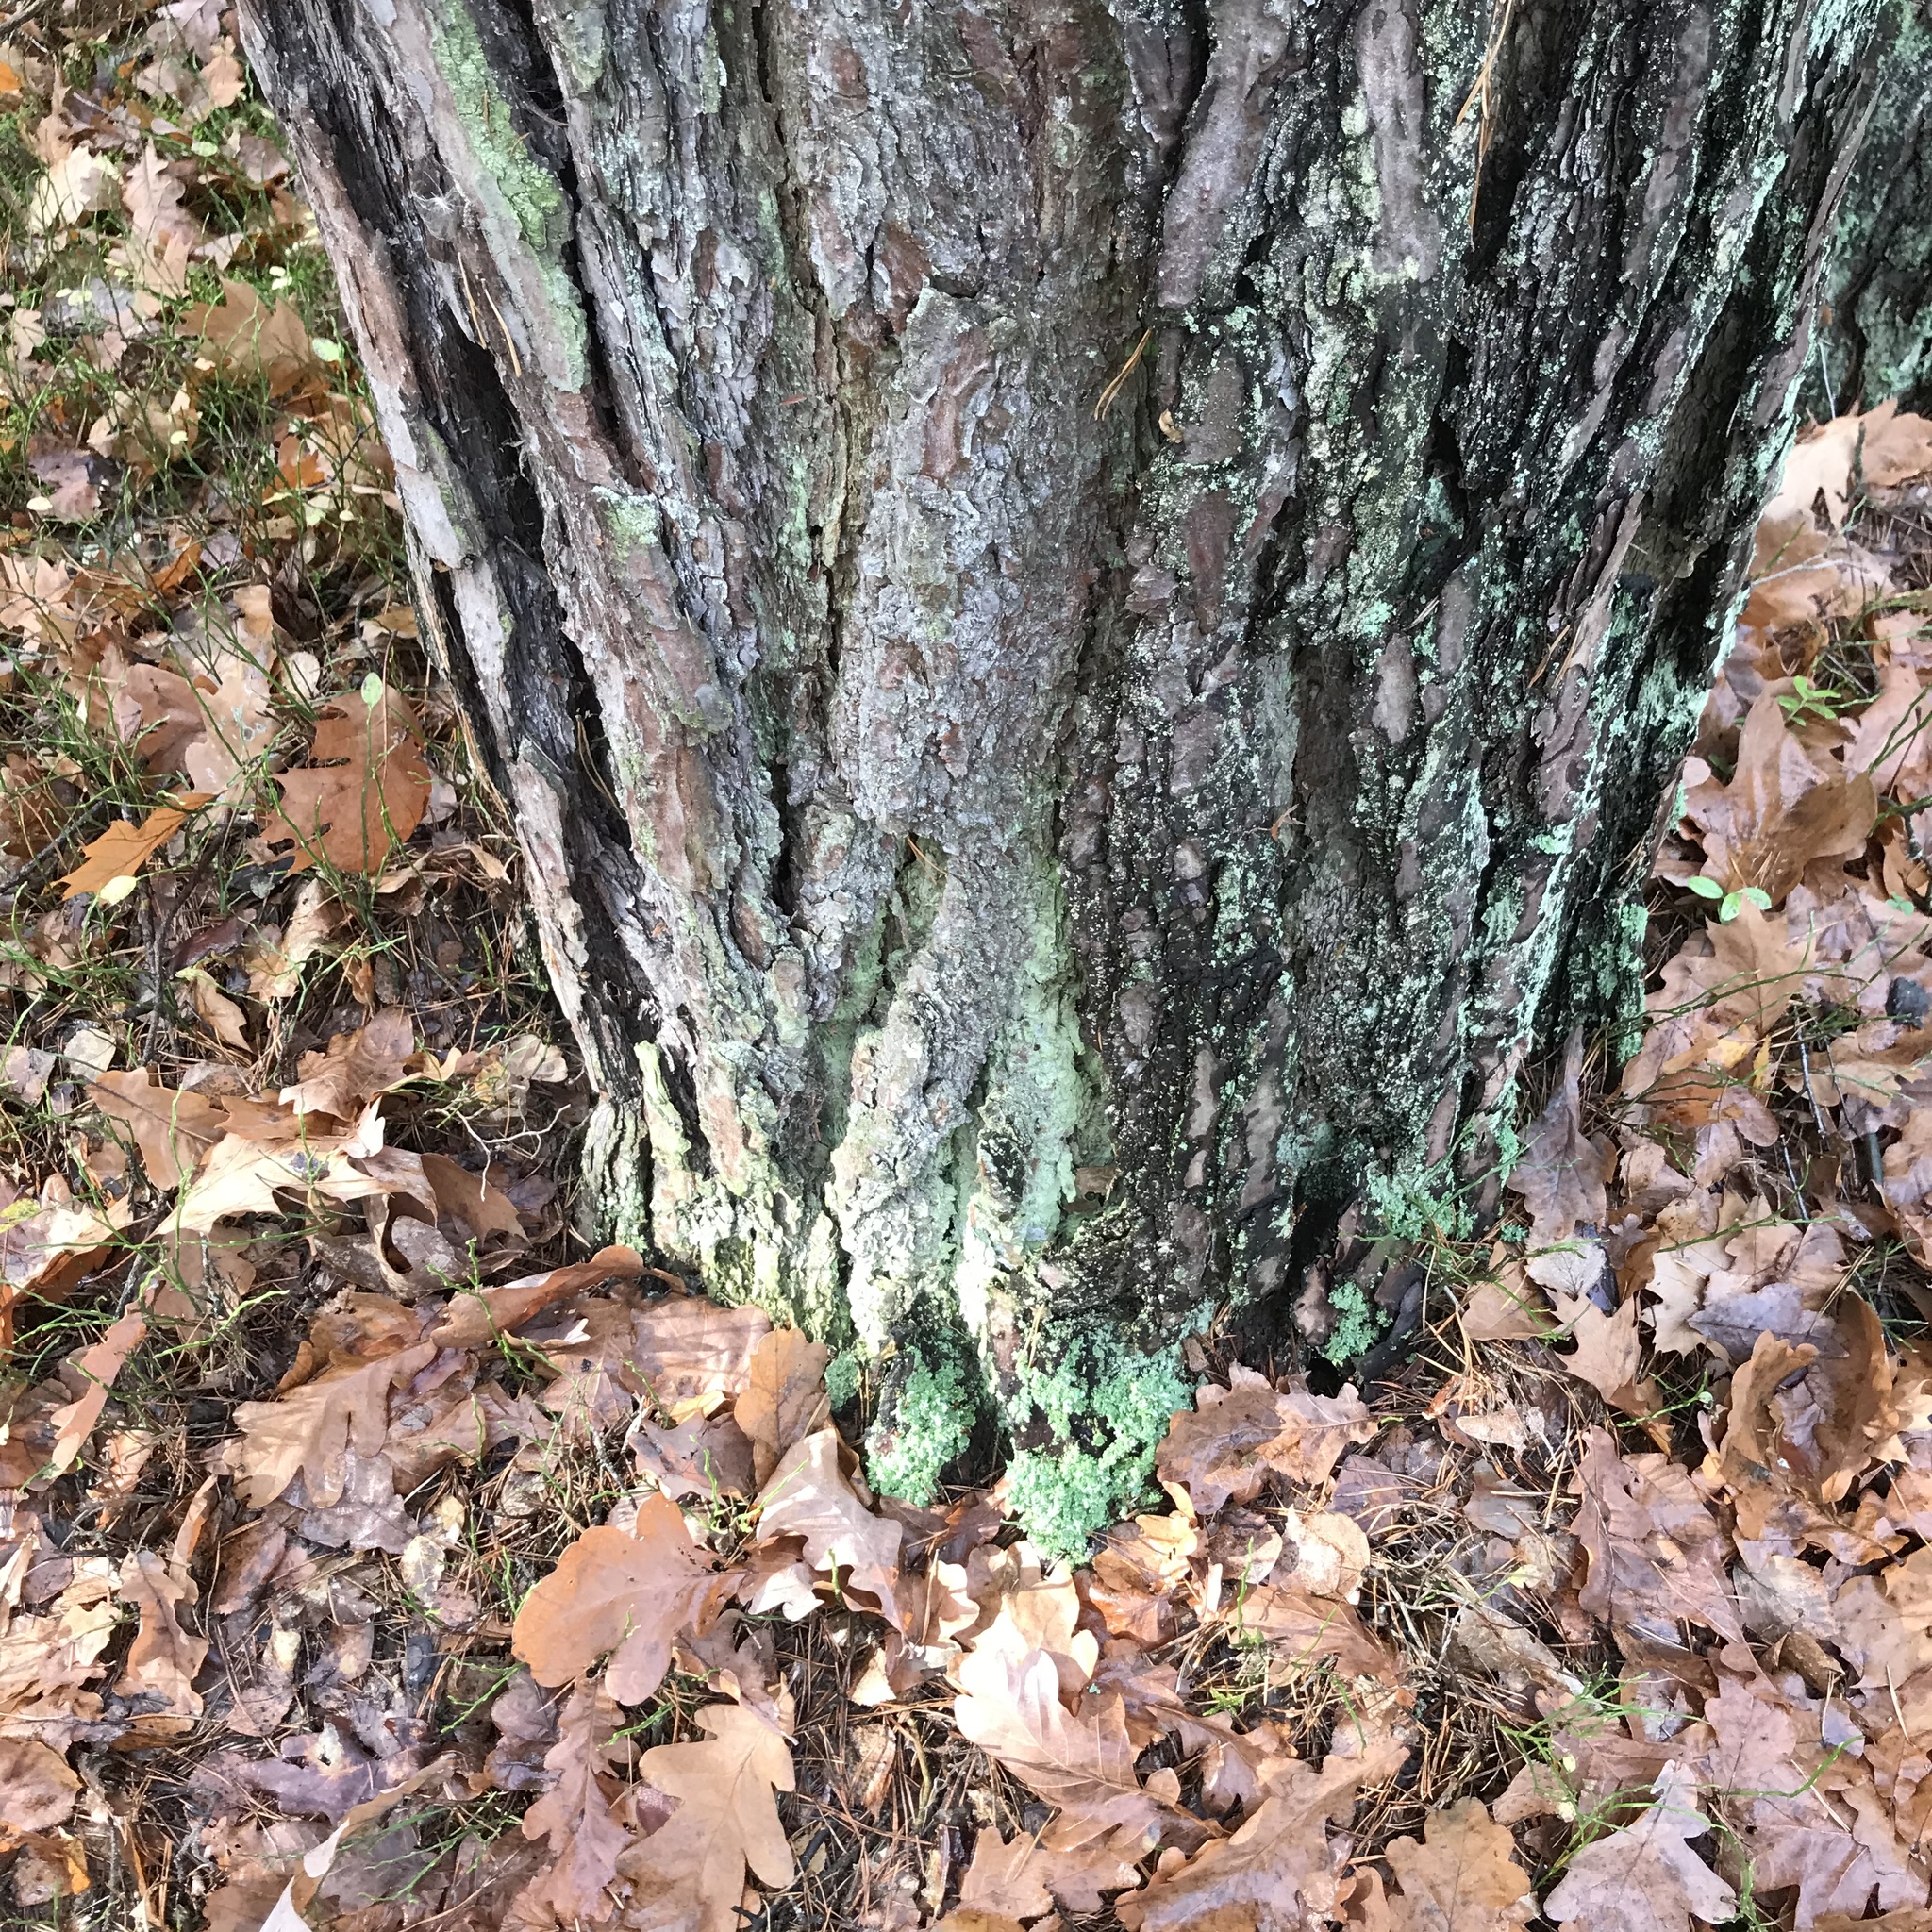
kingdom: Plantae
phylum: Tracheophyta
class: Pinopsida
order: Pinales
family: Pinaceae
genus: Pinus
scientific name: Pinus sylvestris
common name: Scots pine
